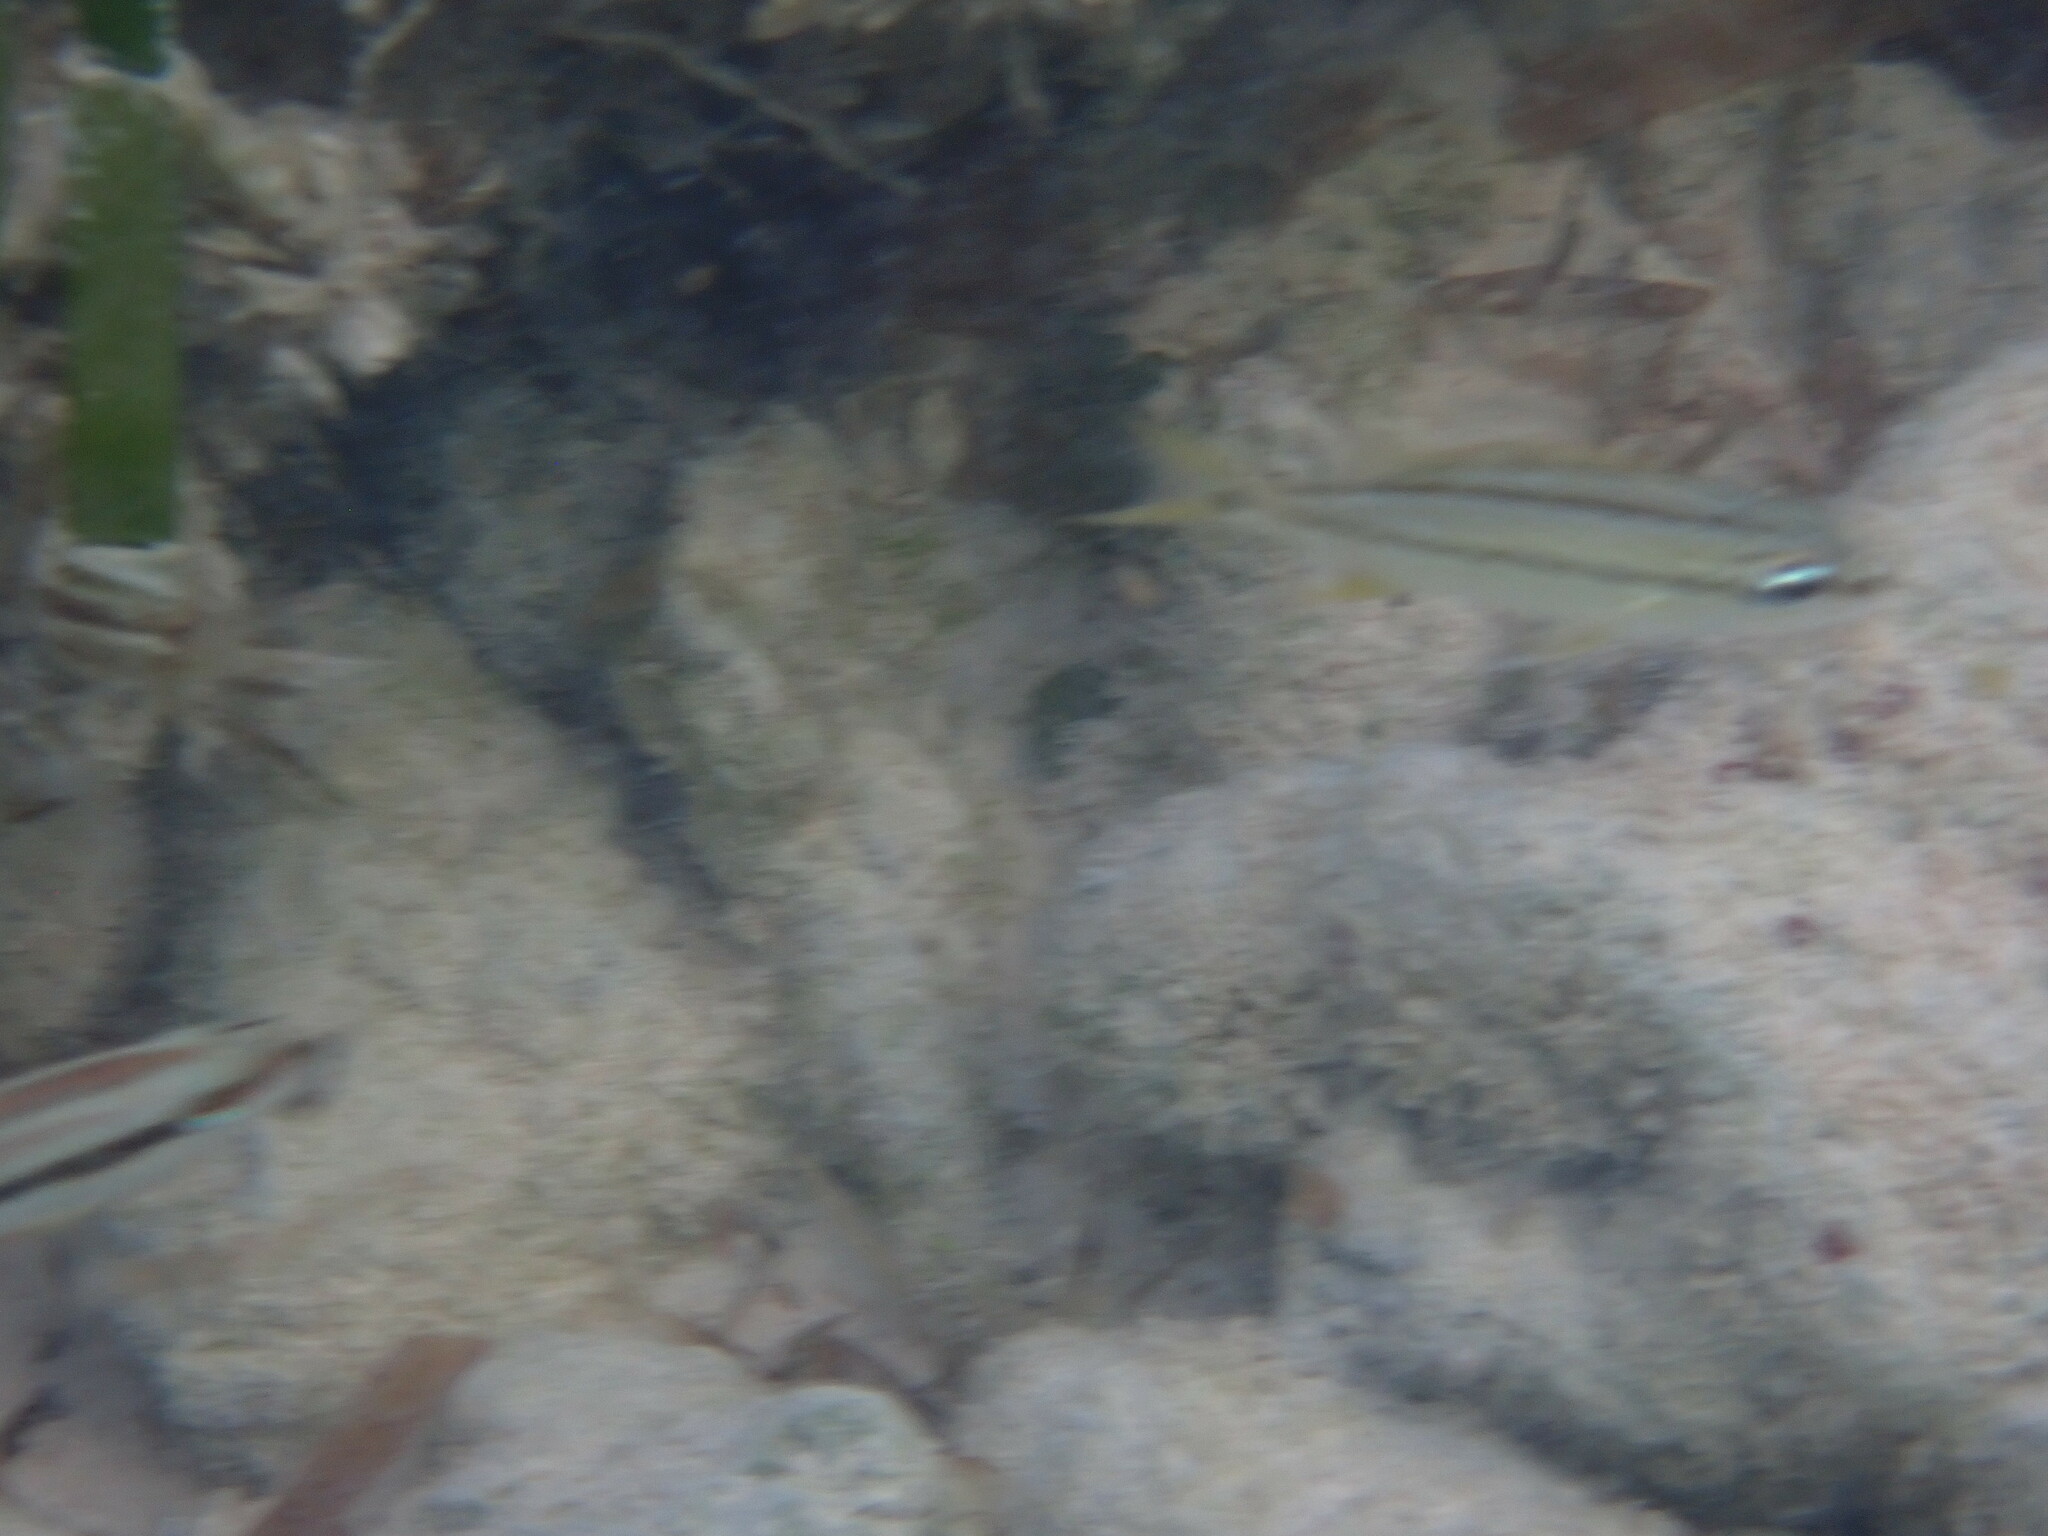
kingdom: Animalia
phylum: Chordata
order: Perciformes
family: Haemulidae
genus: Haemulon
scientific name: Haemulon flavolineatum
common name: French grunt
